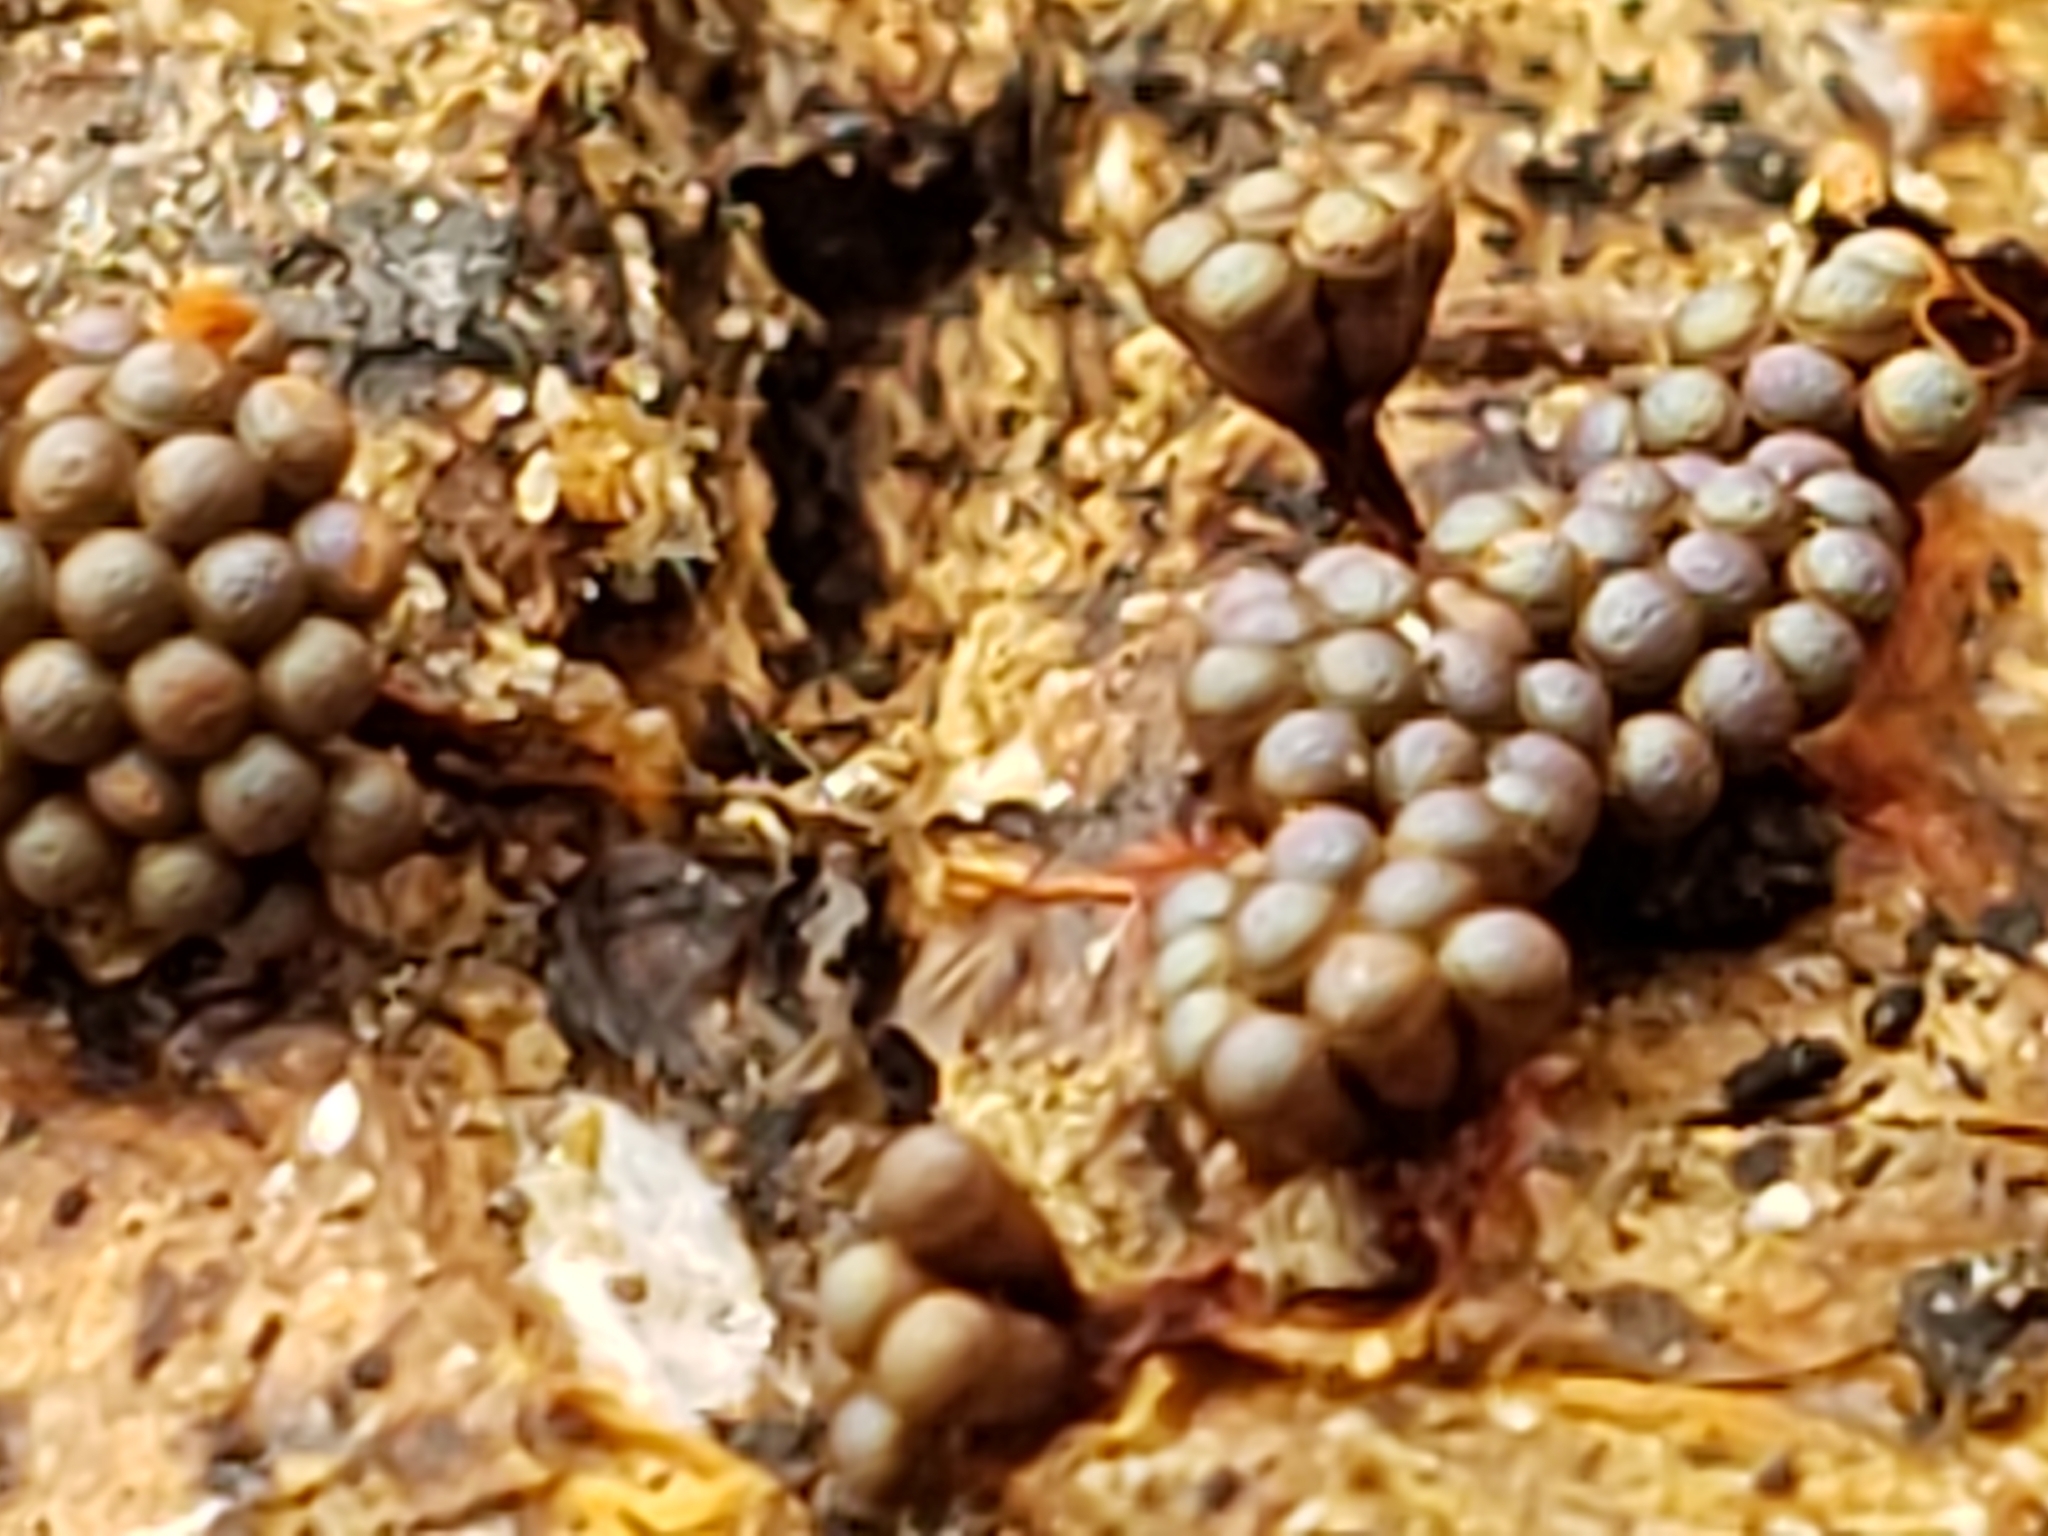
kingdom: Protozoa
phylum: Mycetozoa
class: Myxomycetes
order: Trichiales
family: Trichiaceae
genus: Metatrichia
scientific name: Metatrichia vesparia
